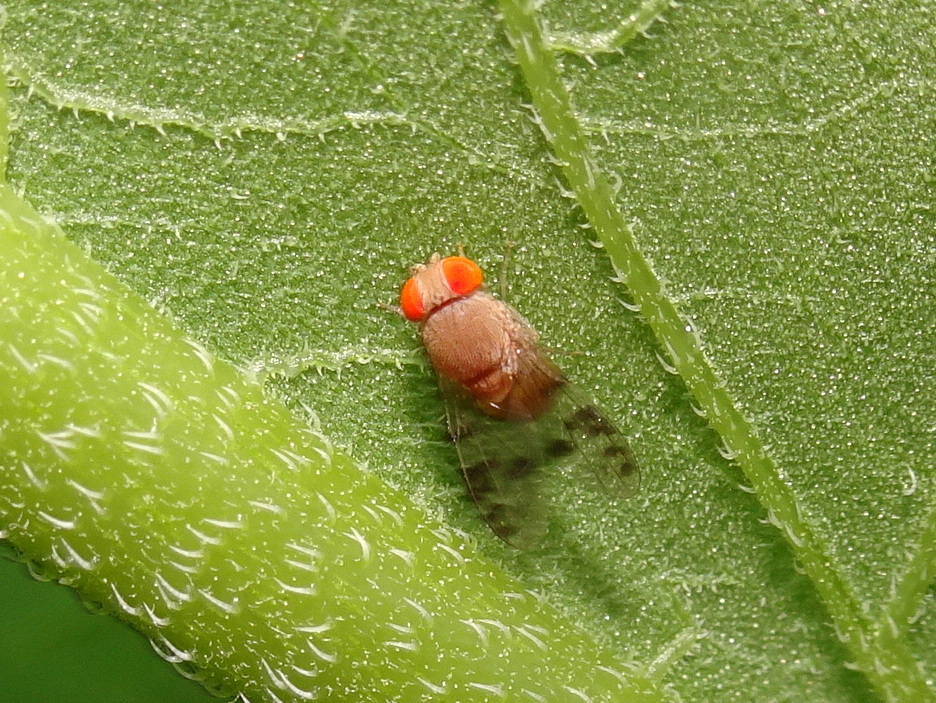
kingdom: Animalia
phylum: Arthropoda
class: Insecta
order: Diptera
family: Drosophilidae
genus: Pseudiastata
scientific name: Pseudiastata nebulosa
